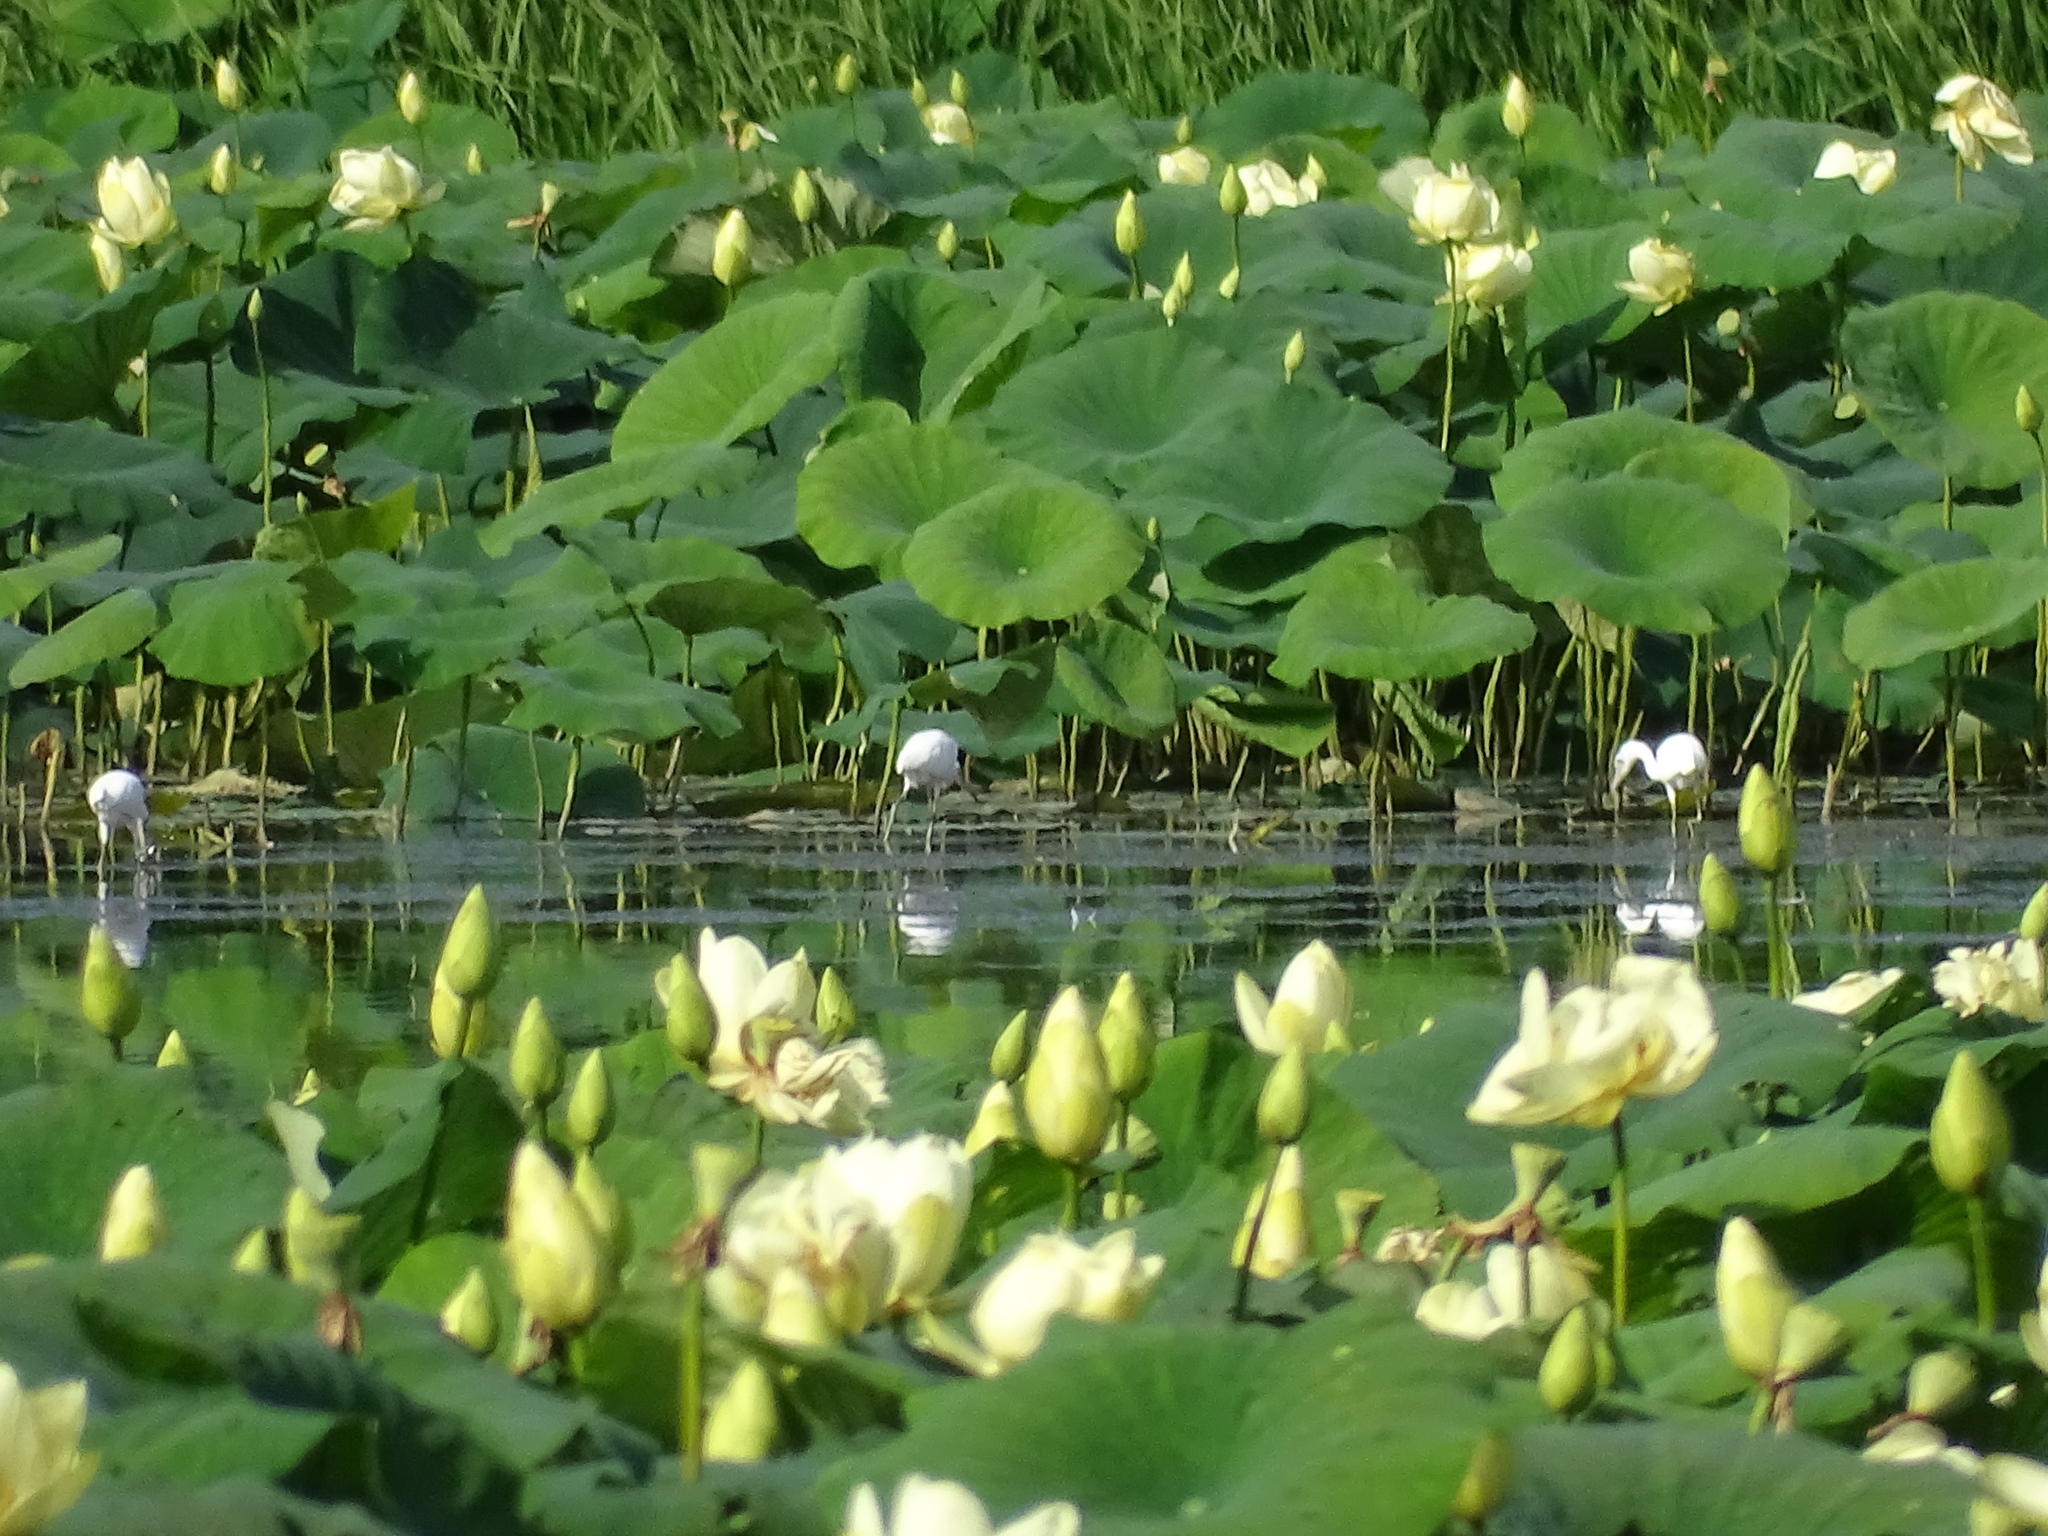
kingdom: Animalia
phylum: Chordata
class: Aves
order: Pelecaniformes
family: Ardeidae
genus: Egretta
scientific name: Egretta caerulea
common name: Little blue heron
